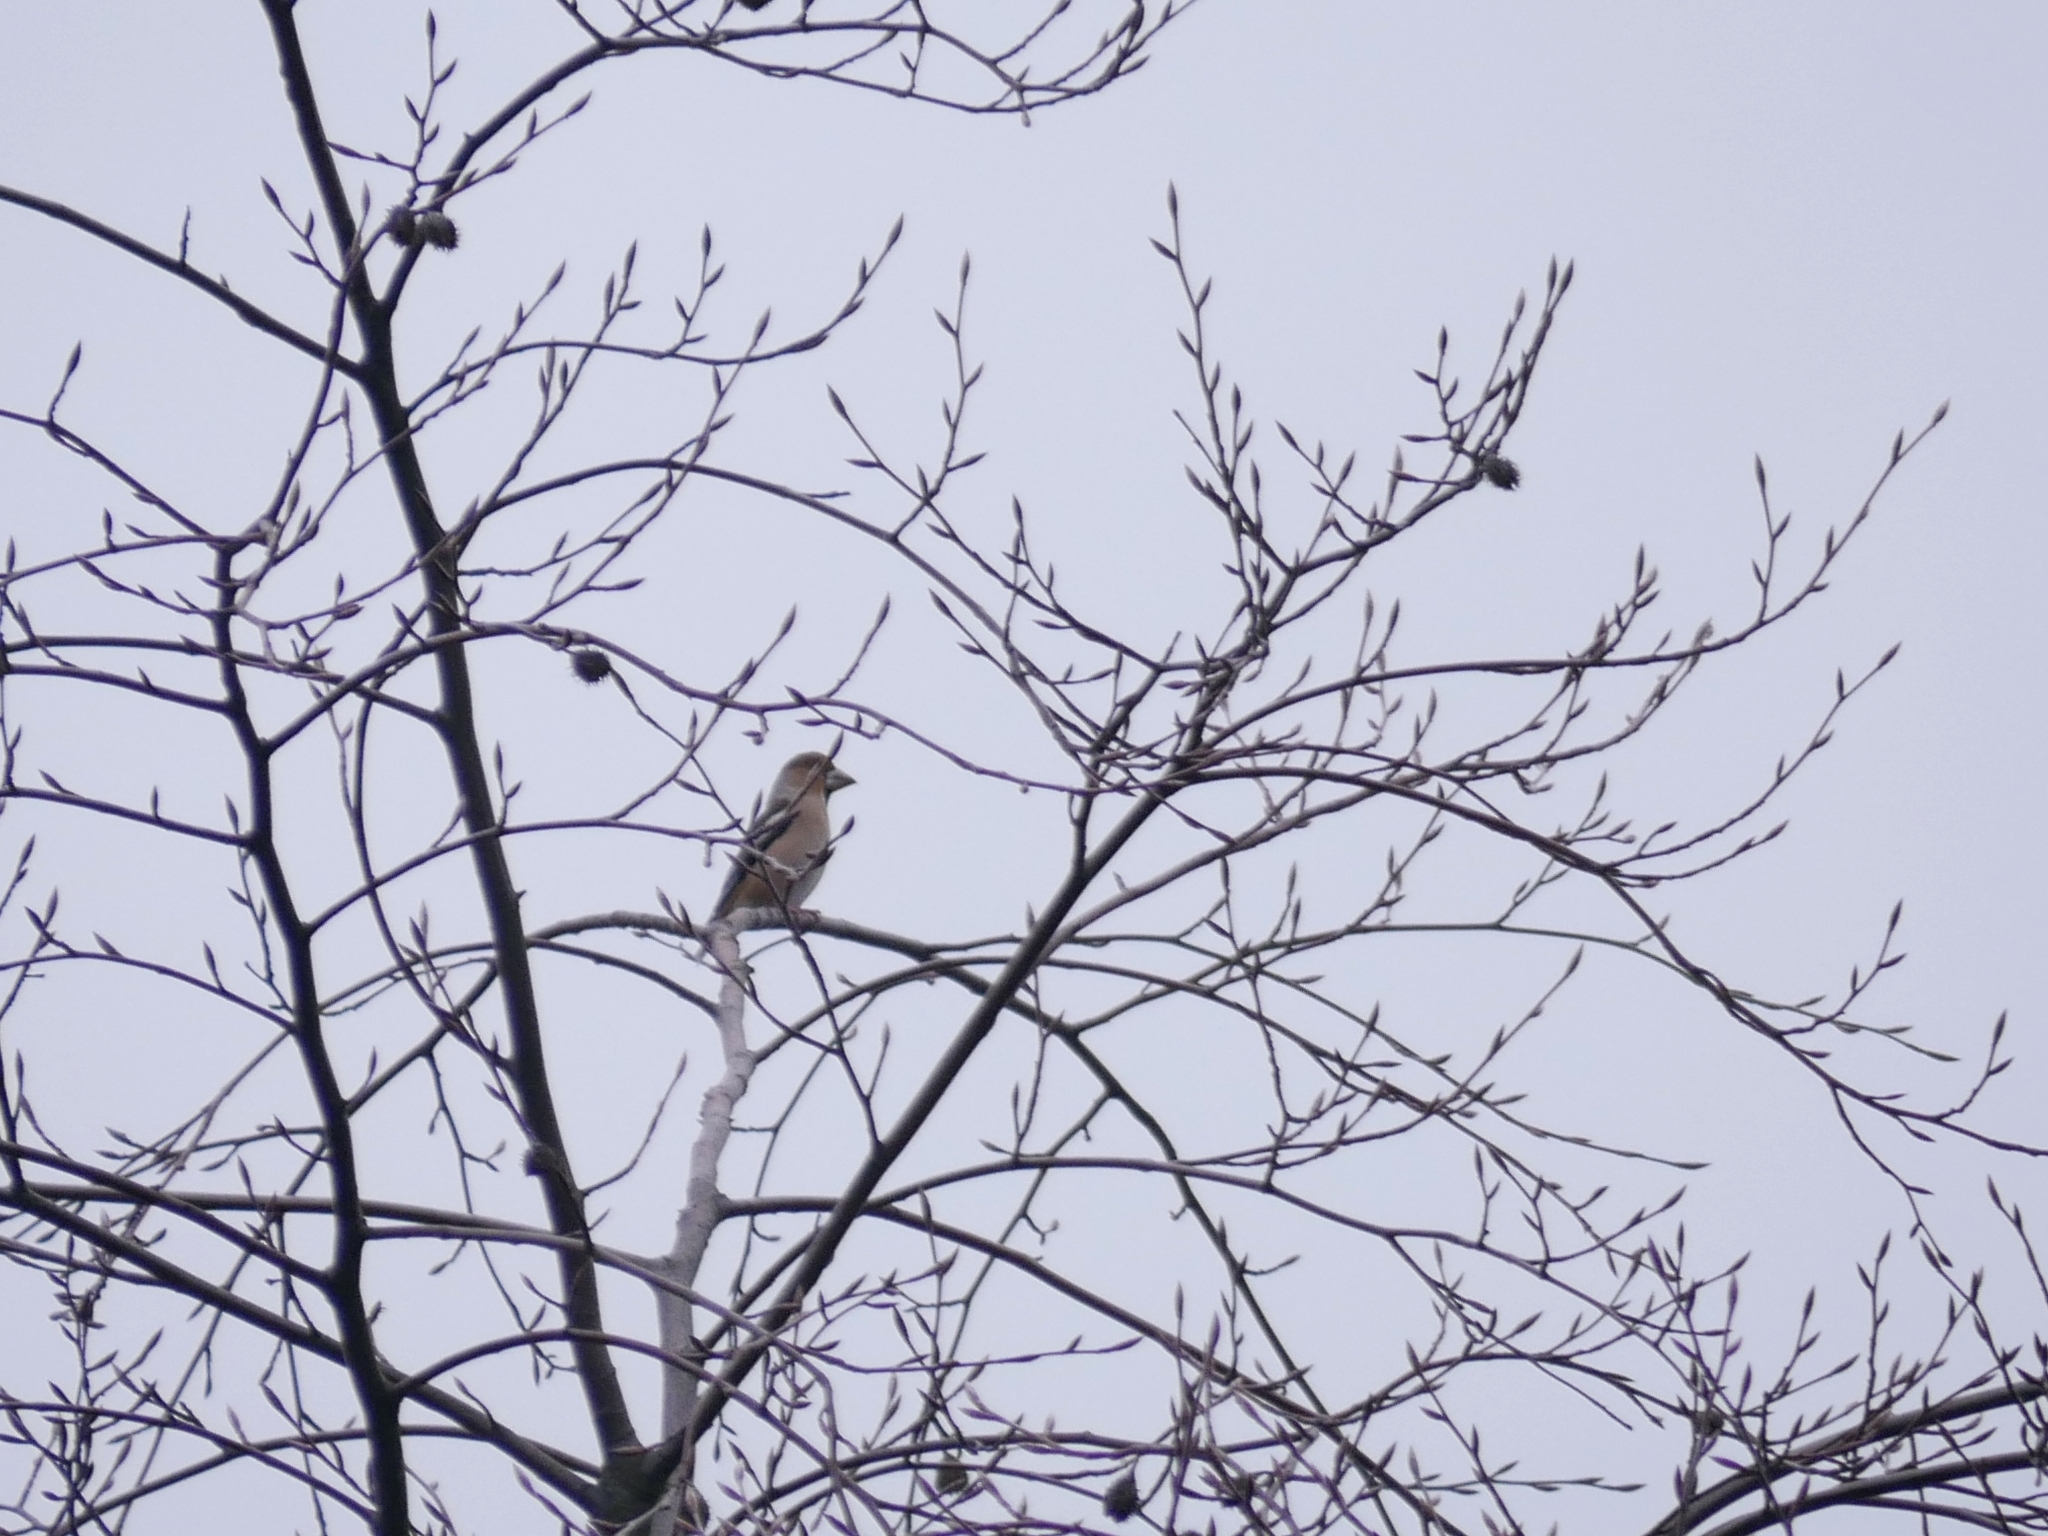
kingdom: Animalia
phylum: Chordata
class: Aves
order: Passeriformes
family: Fringillidae
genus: Coccothraustes
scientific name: Coccothraustes coccothraustes
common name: Hawfinch
